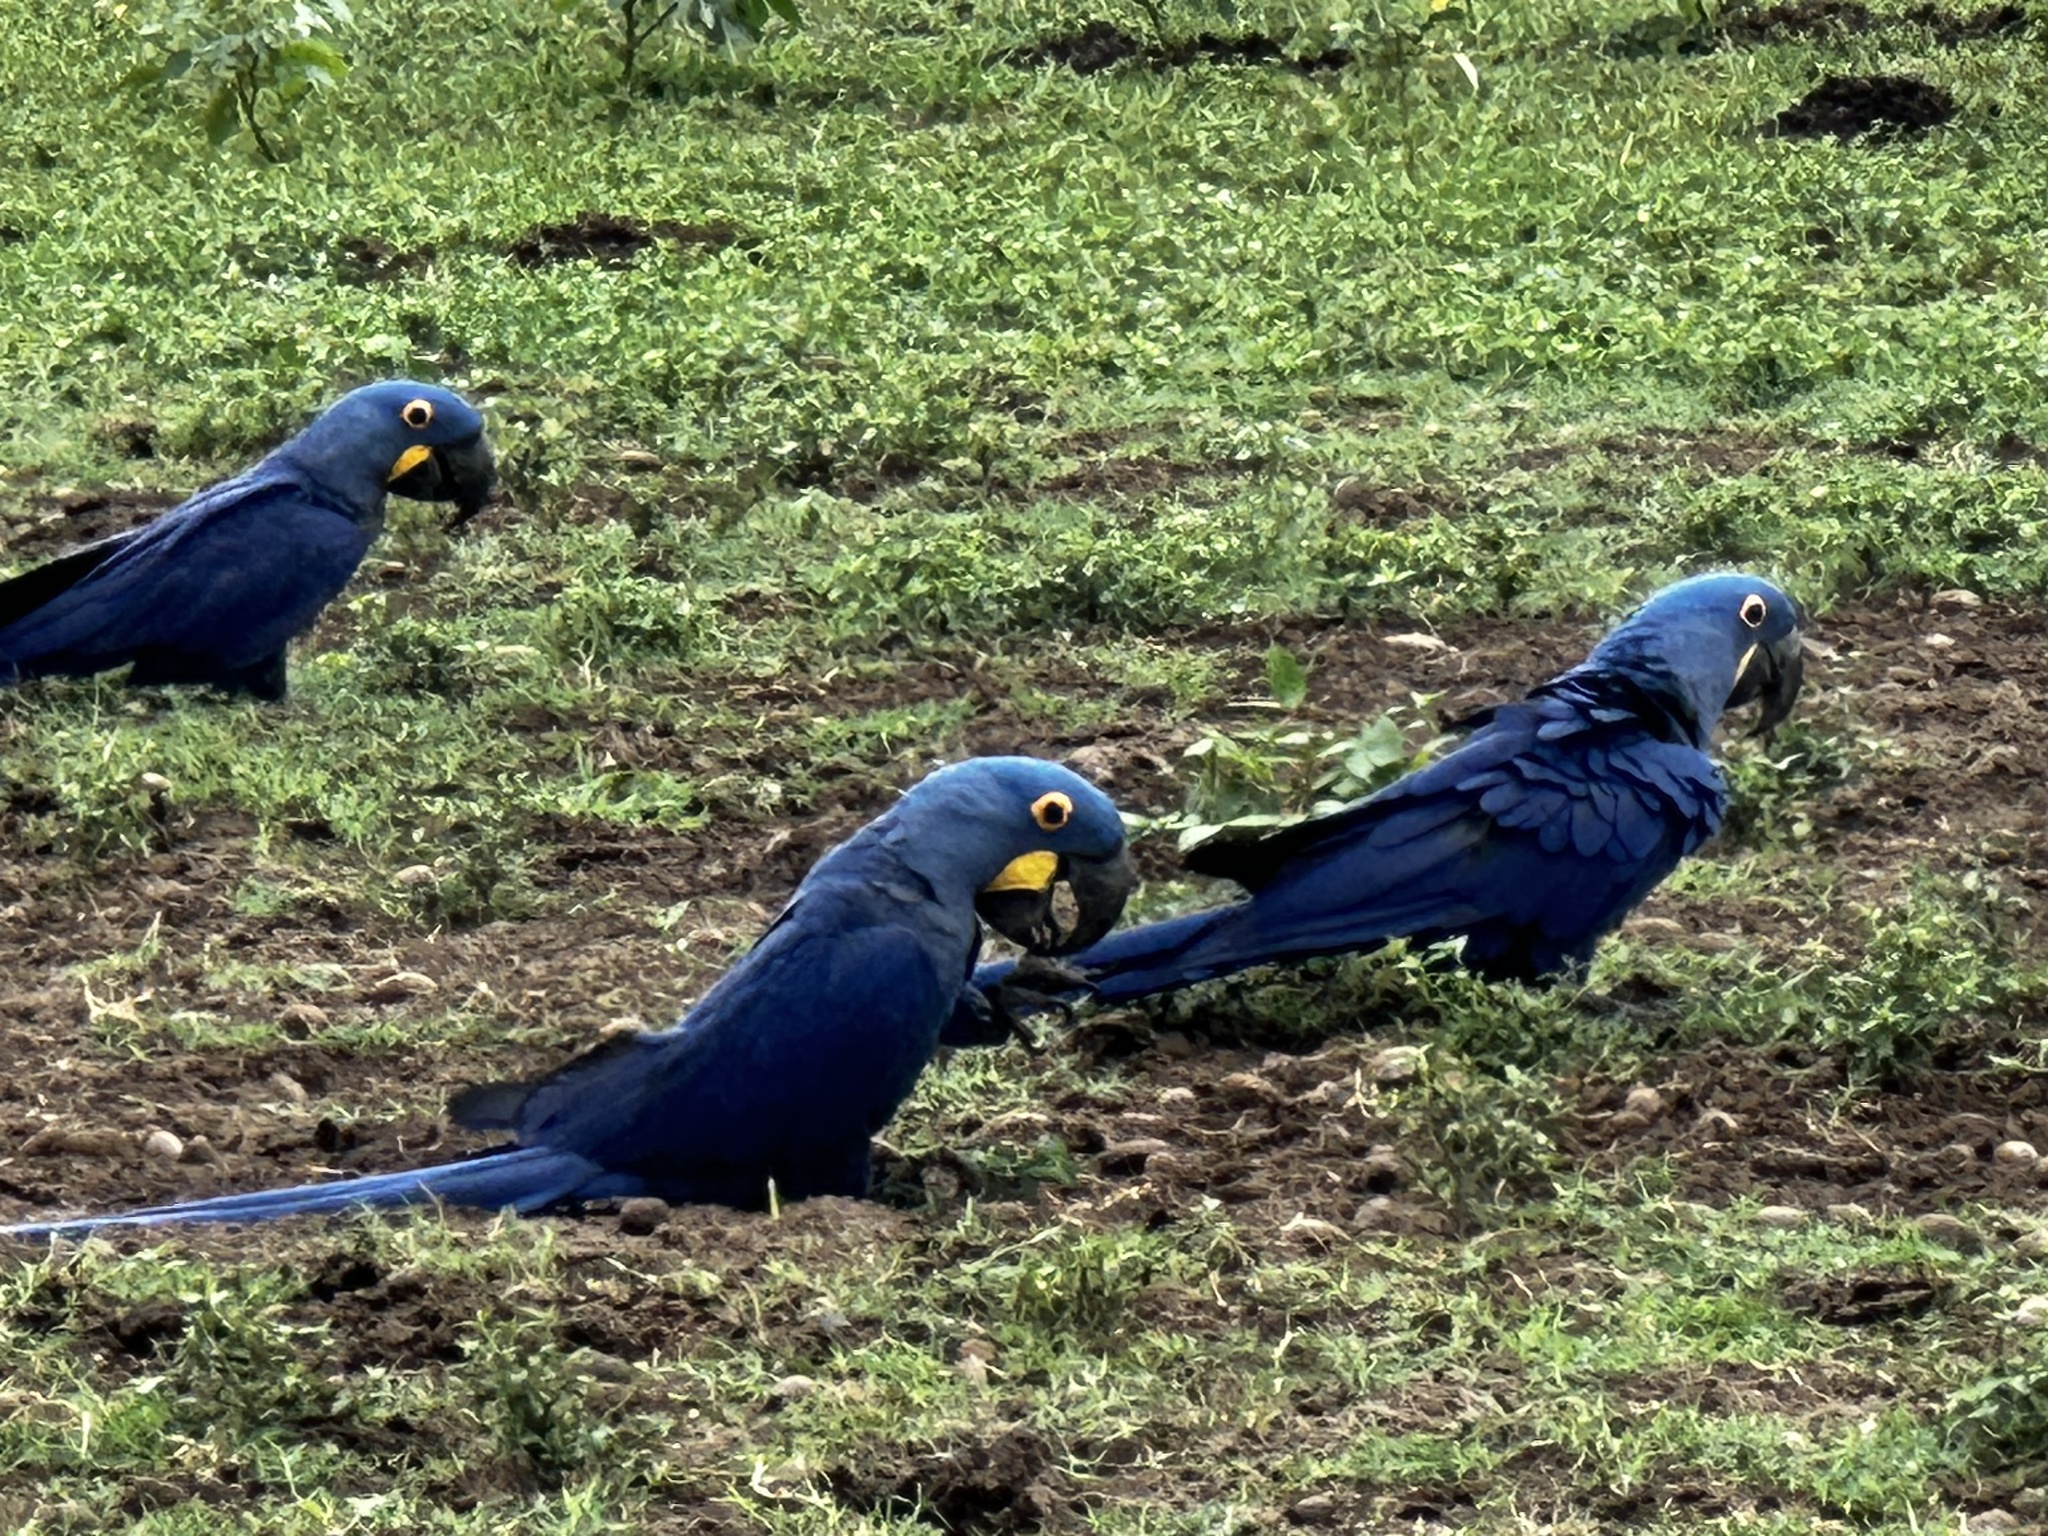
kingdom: Animalia
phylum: Chordata
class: Aves
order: Psittaciformes
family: Psittacidae
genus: Anodorhynchus
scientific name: Anodorhynchus hyacinthinus
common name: Hyacinth macaw
